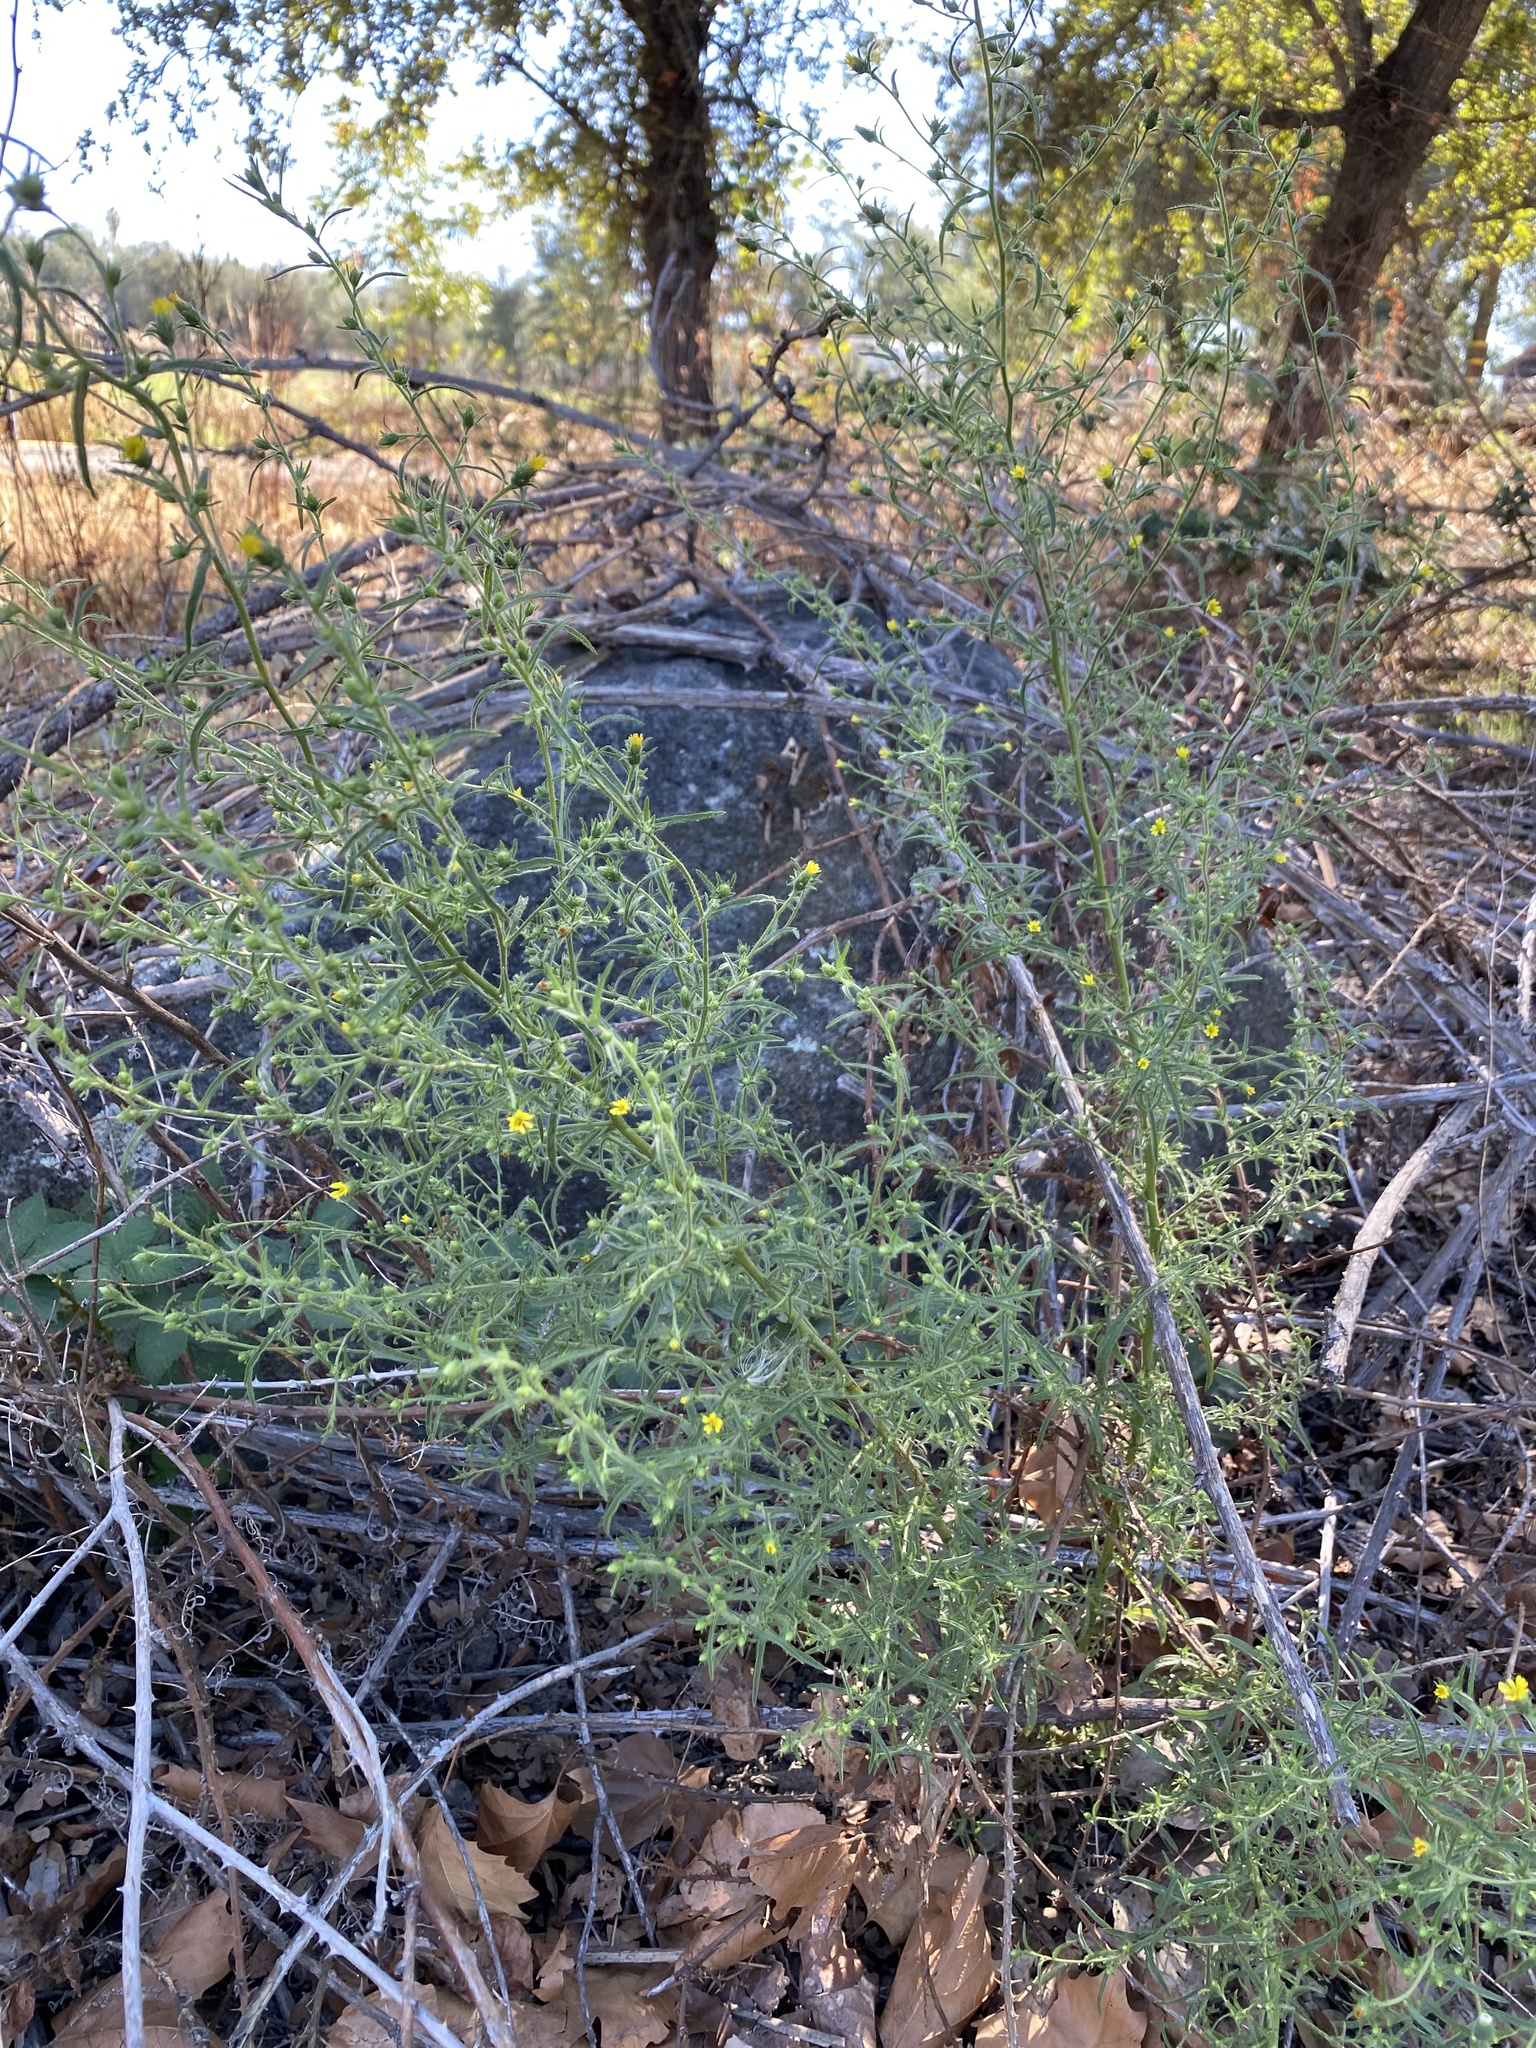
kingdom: Plantae
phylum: Tracheophyta
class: Magnoliopsida
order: Asterales
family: Asteraceae
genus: Dittrichia
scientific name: Dittrichia graveolens
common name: Stinking fleabane
